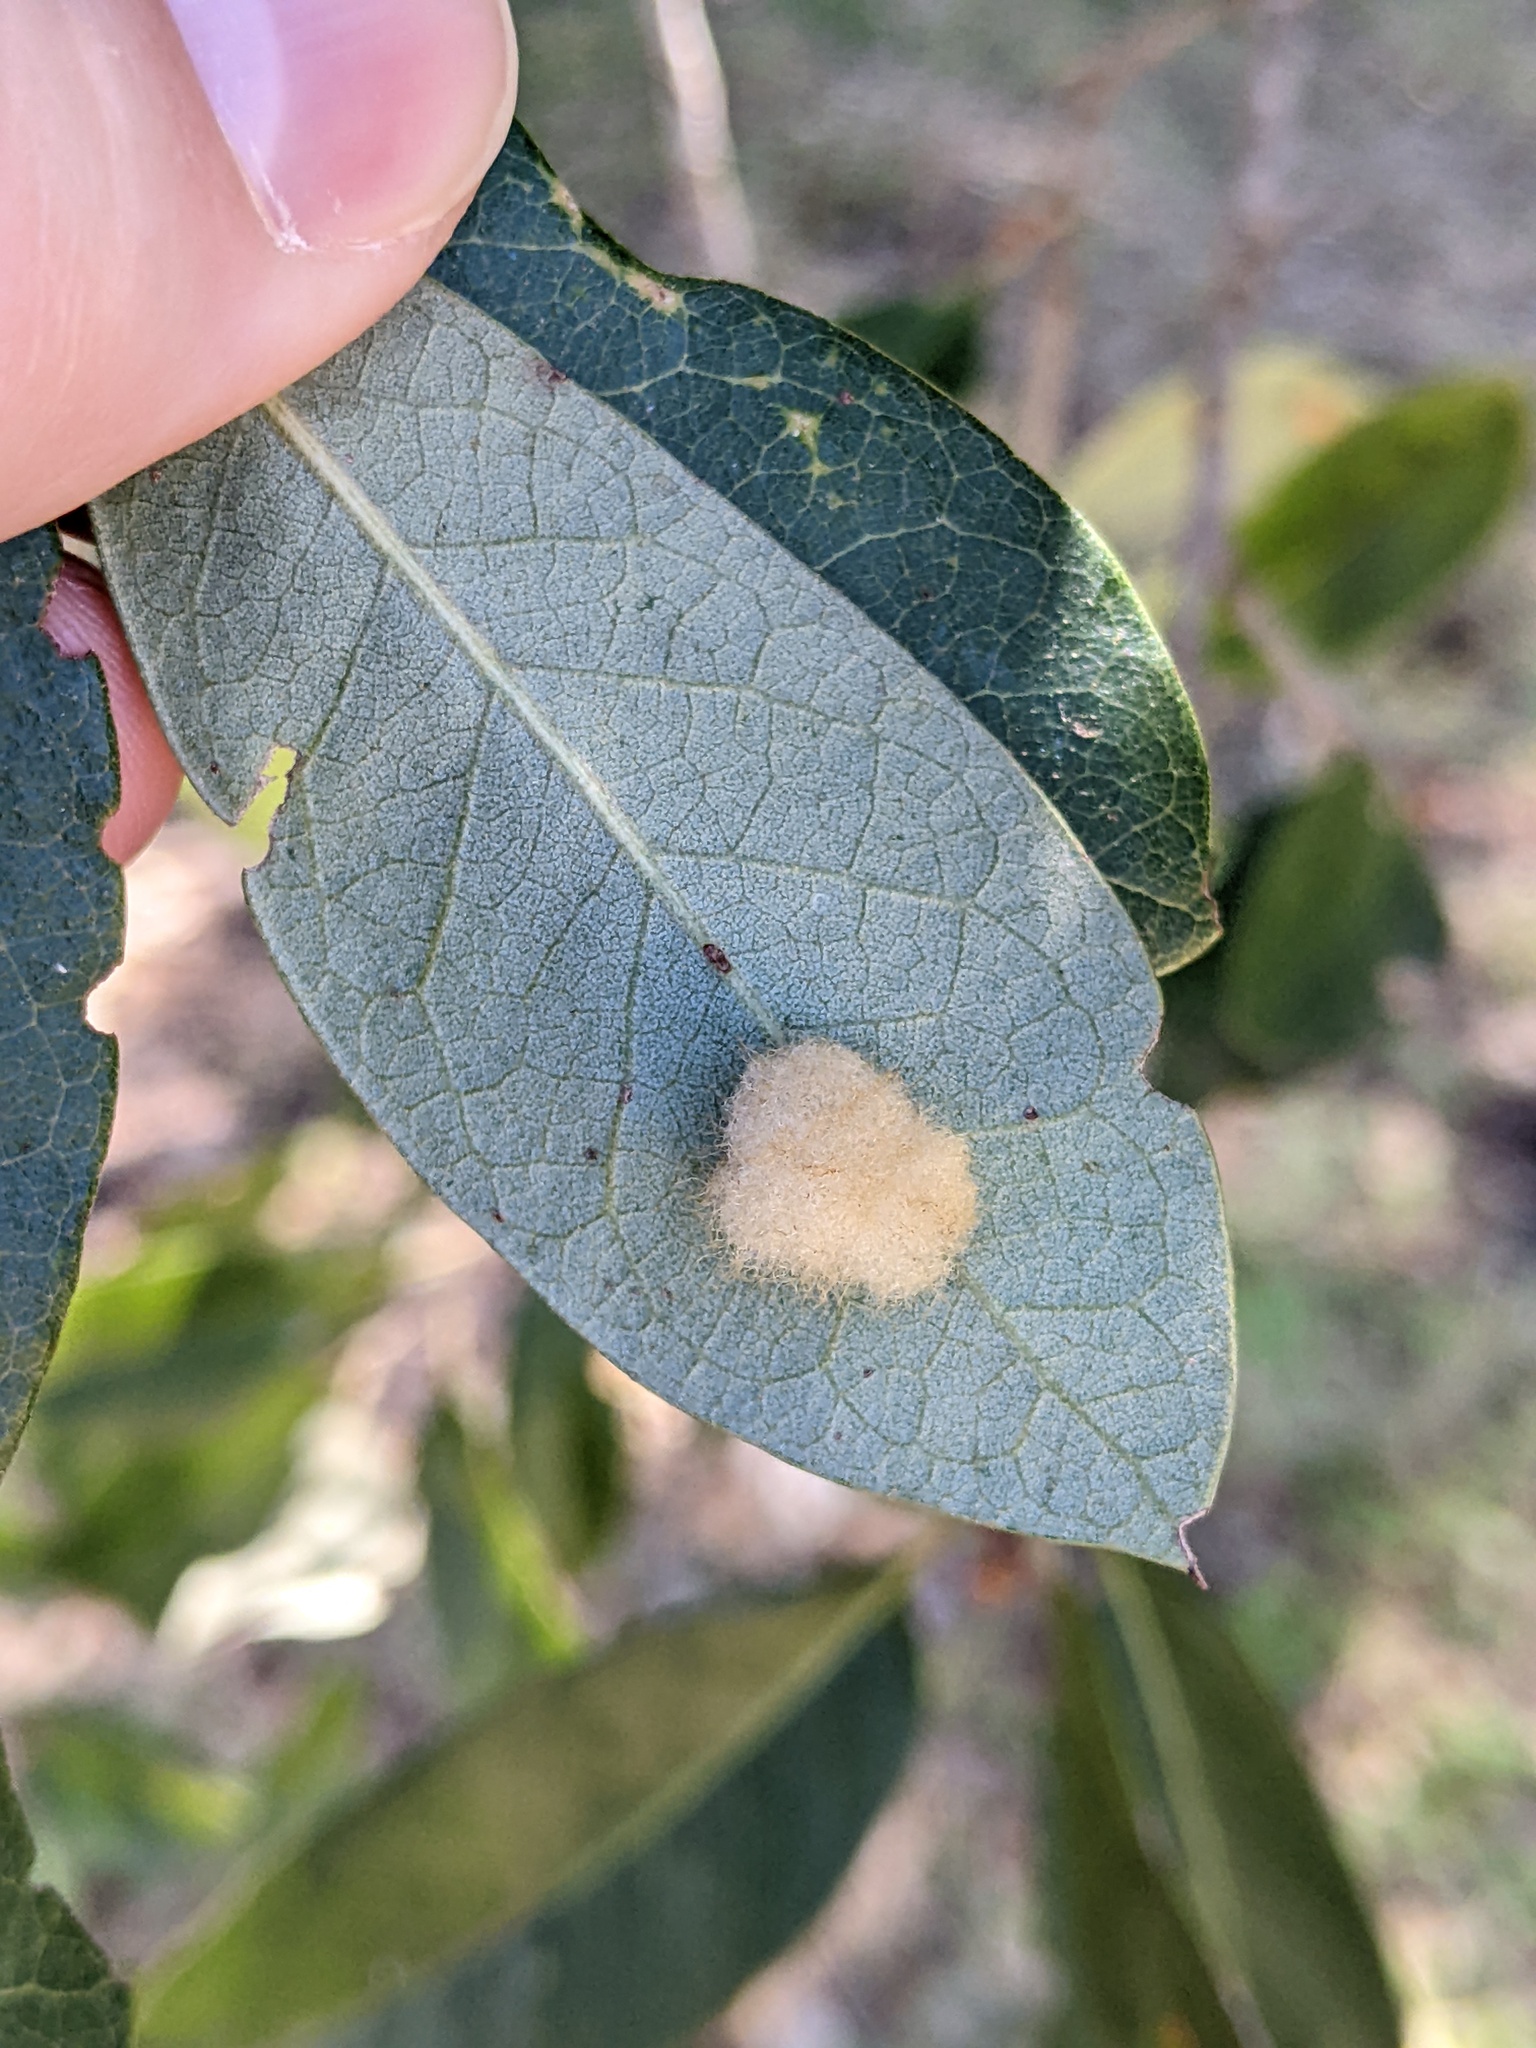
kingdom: Animalia
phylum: Arthropoda
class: Insecta
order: Hymenoptera
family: Cynipidae
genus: Andricus
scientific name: Andricus Druon quercuslanigerum
